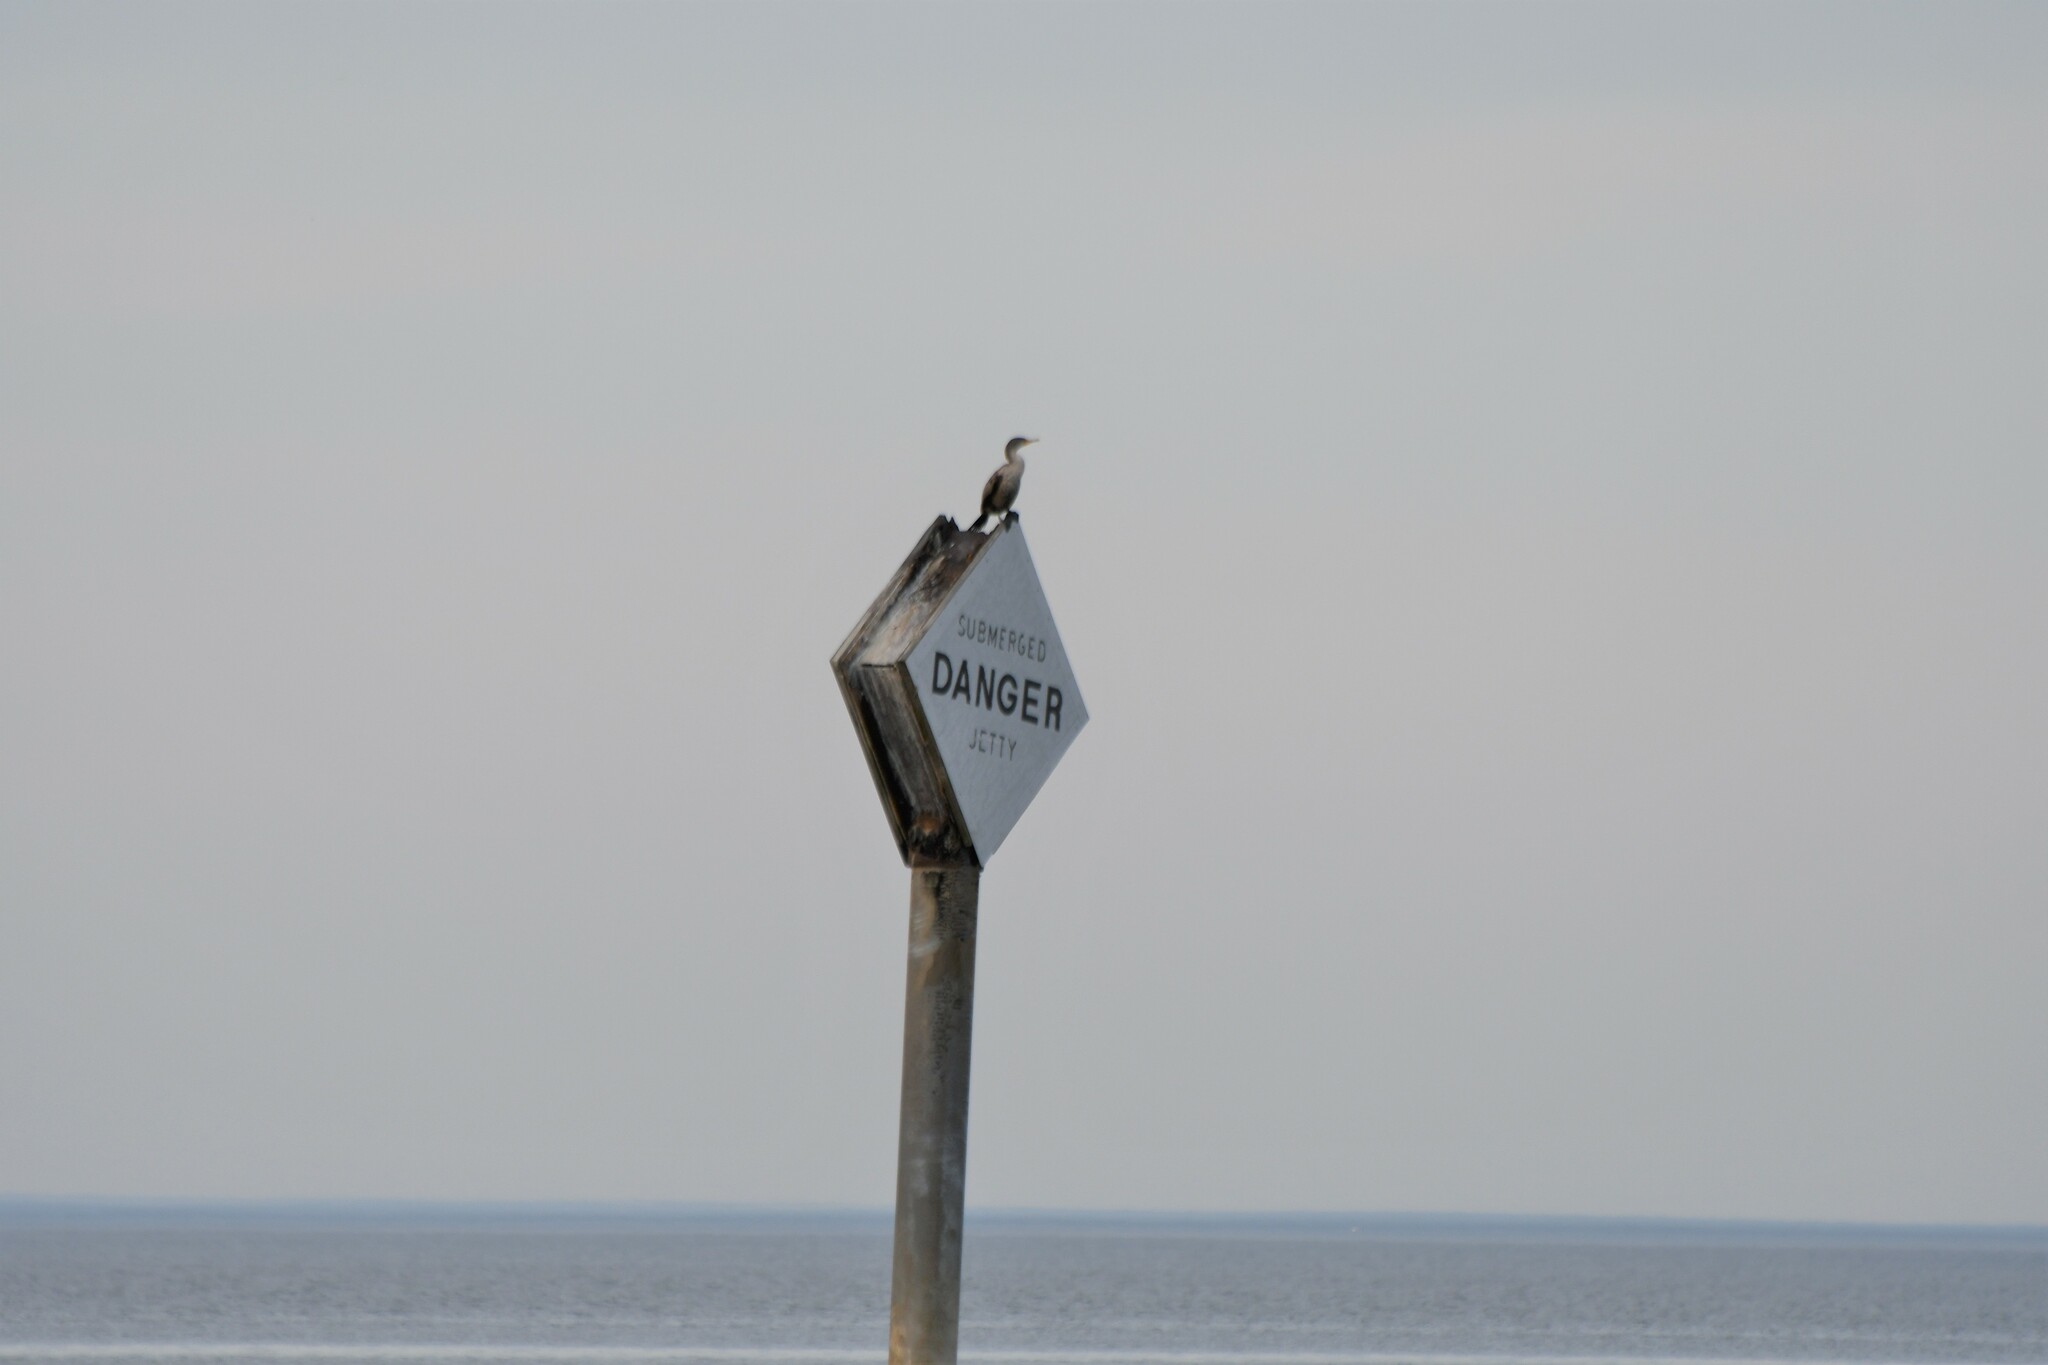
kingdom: Animalia
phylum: Chordata
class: Aves
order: Suliformes
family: Phalacrocoracidae
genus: Phalacrocorax
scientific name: Phalacrocorax auritus
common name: Double-crested cormorant
